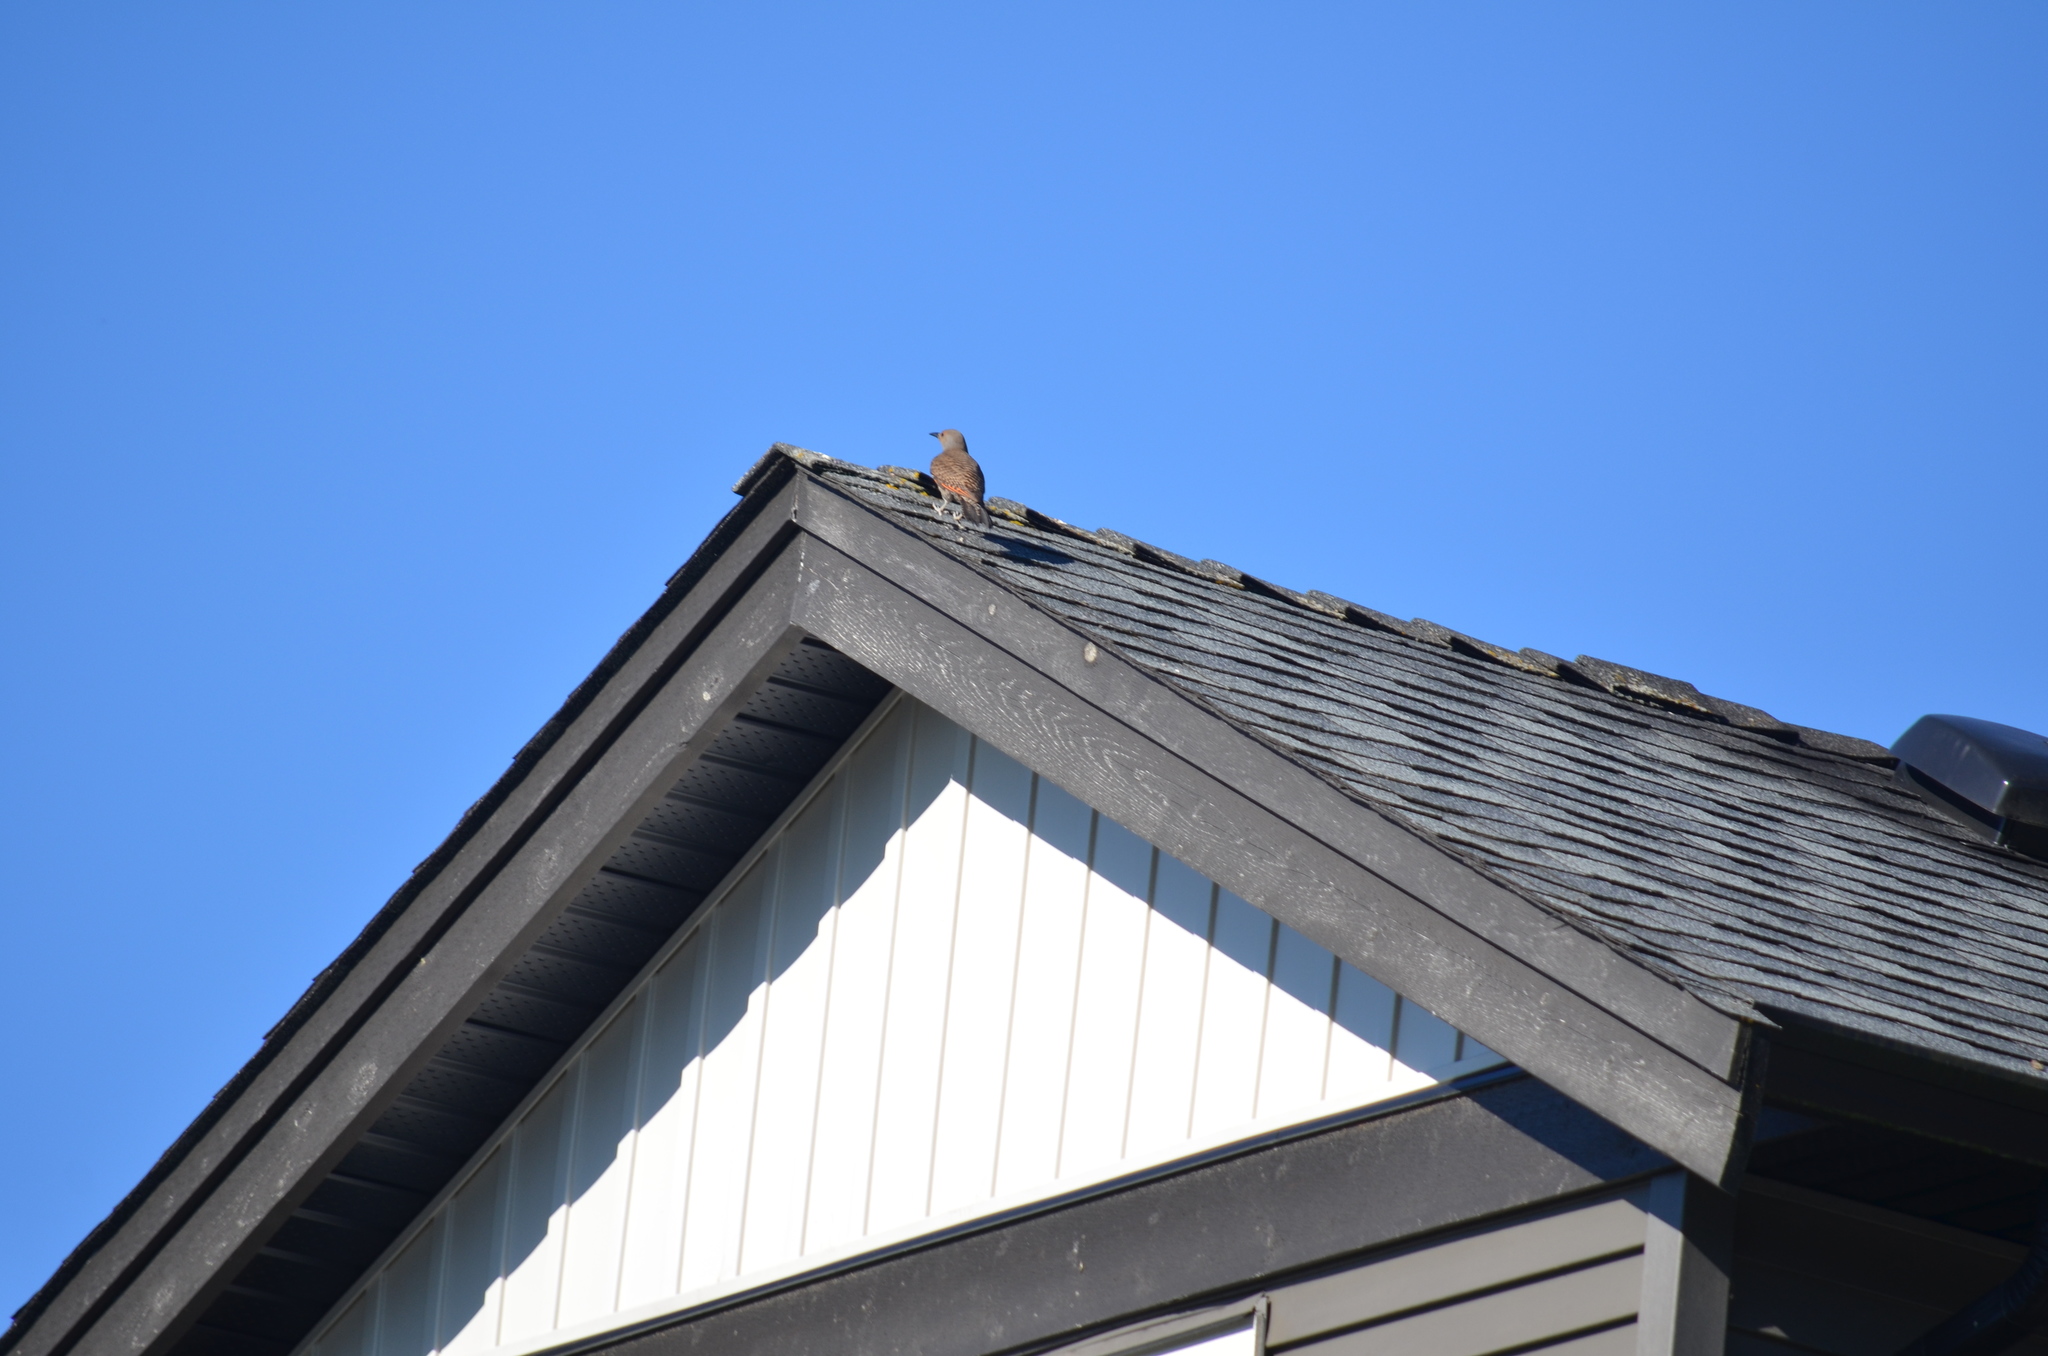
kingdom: Animalia
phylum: Chordata
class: Aves
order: Piciformes
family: Picidae
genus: Colaptes
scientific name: Colaptes auratus
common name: Northern flicker
